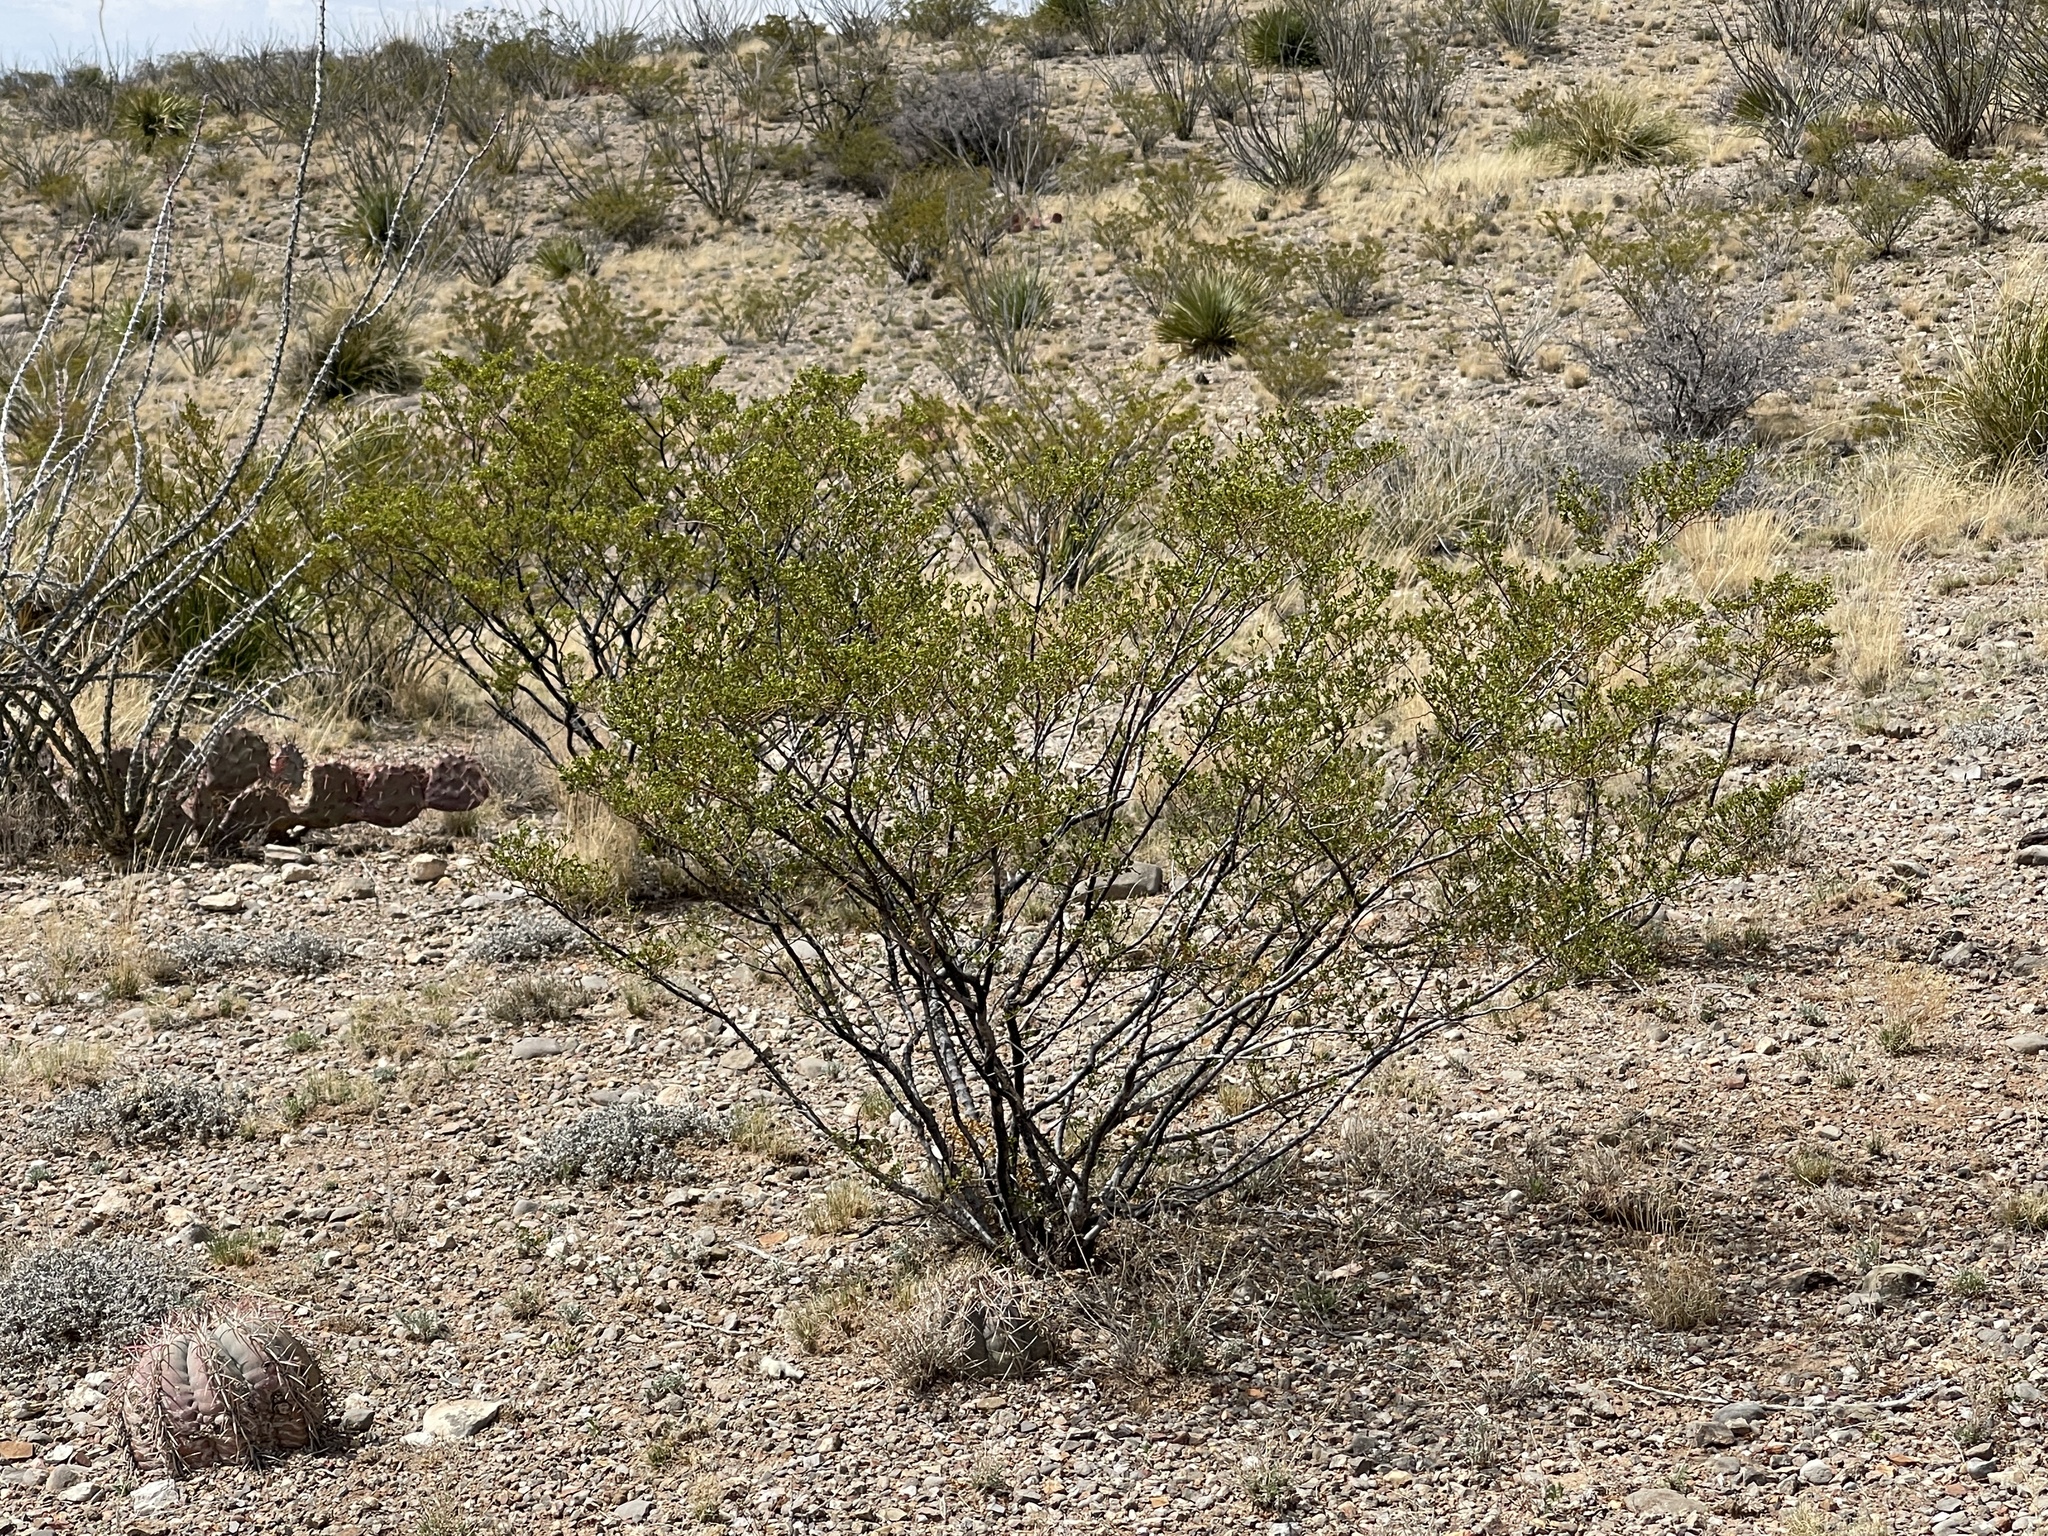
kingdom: Plantae
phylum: Tracheophyta
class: Magnoliopsida
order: Zygophyllales
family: Zygophyllaceae
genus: Larrea
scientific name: Larrea tridentata
